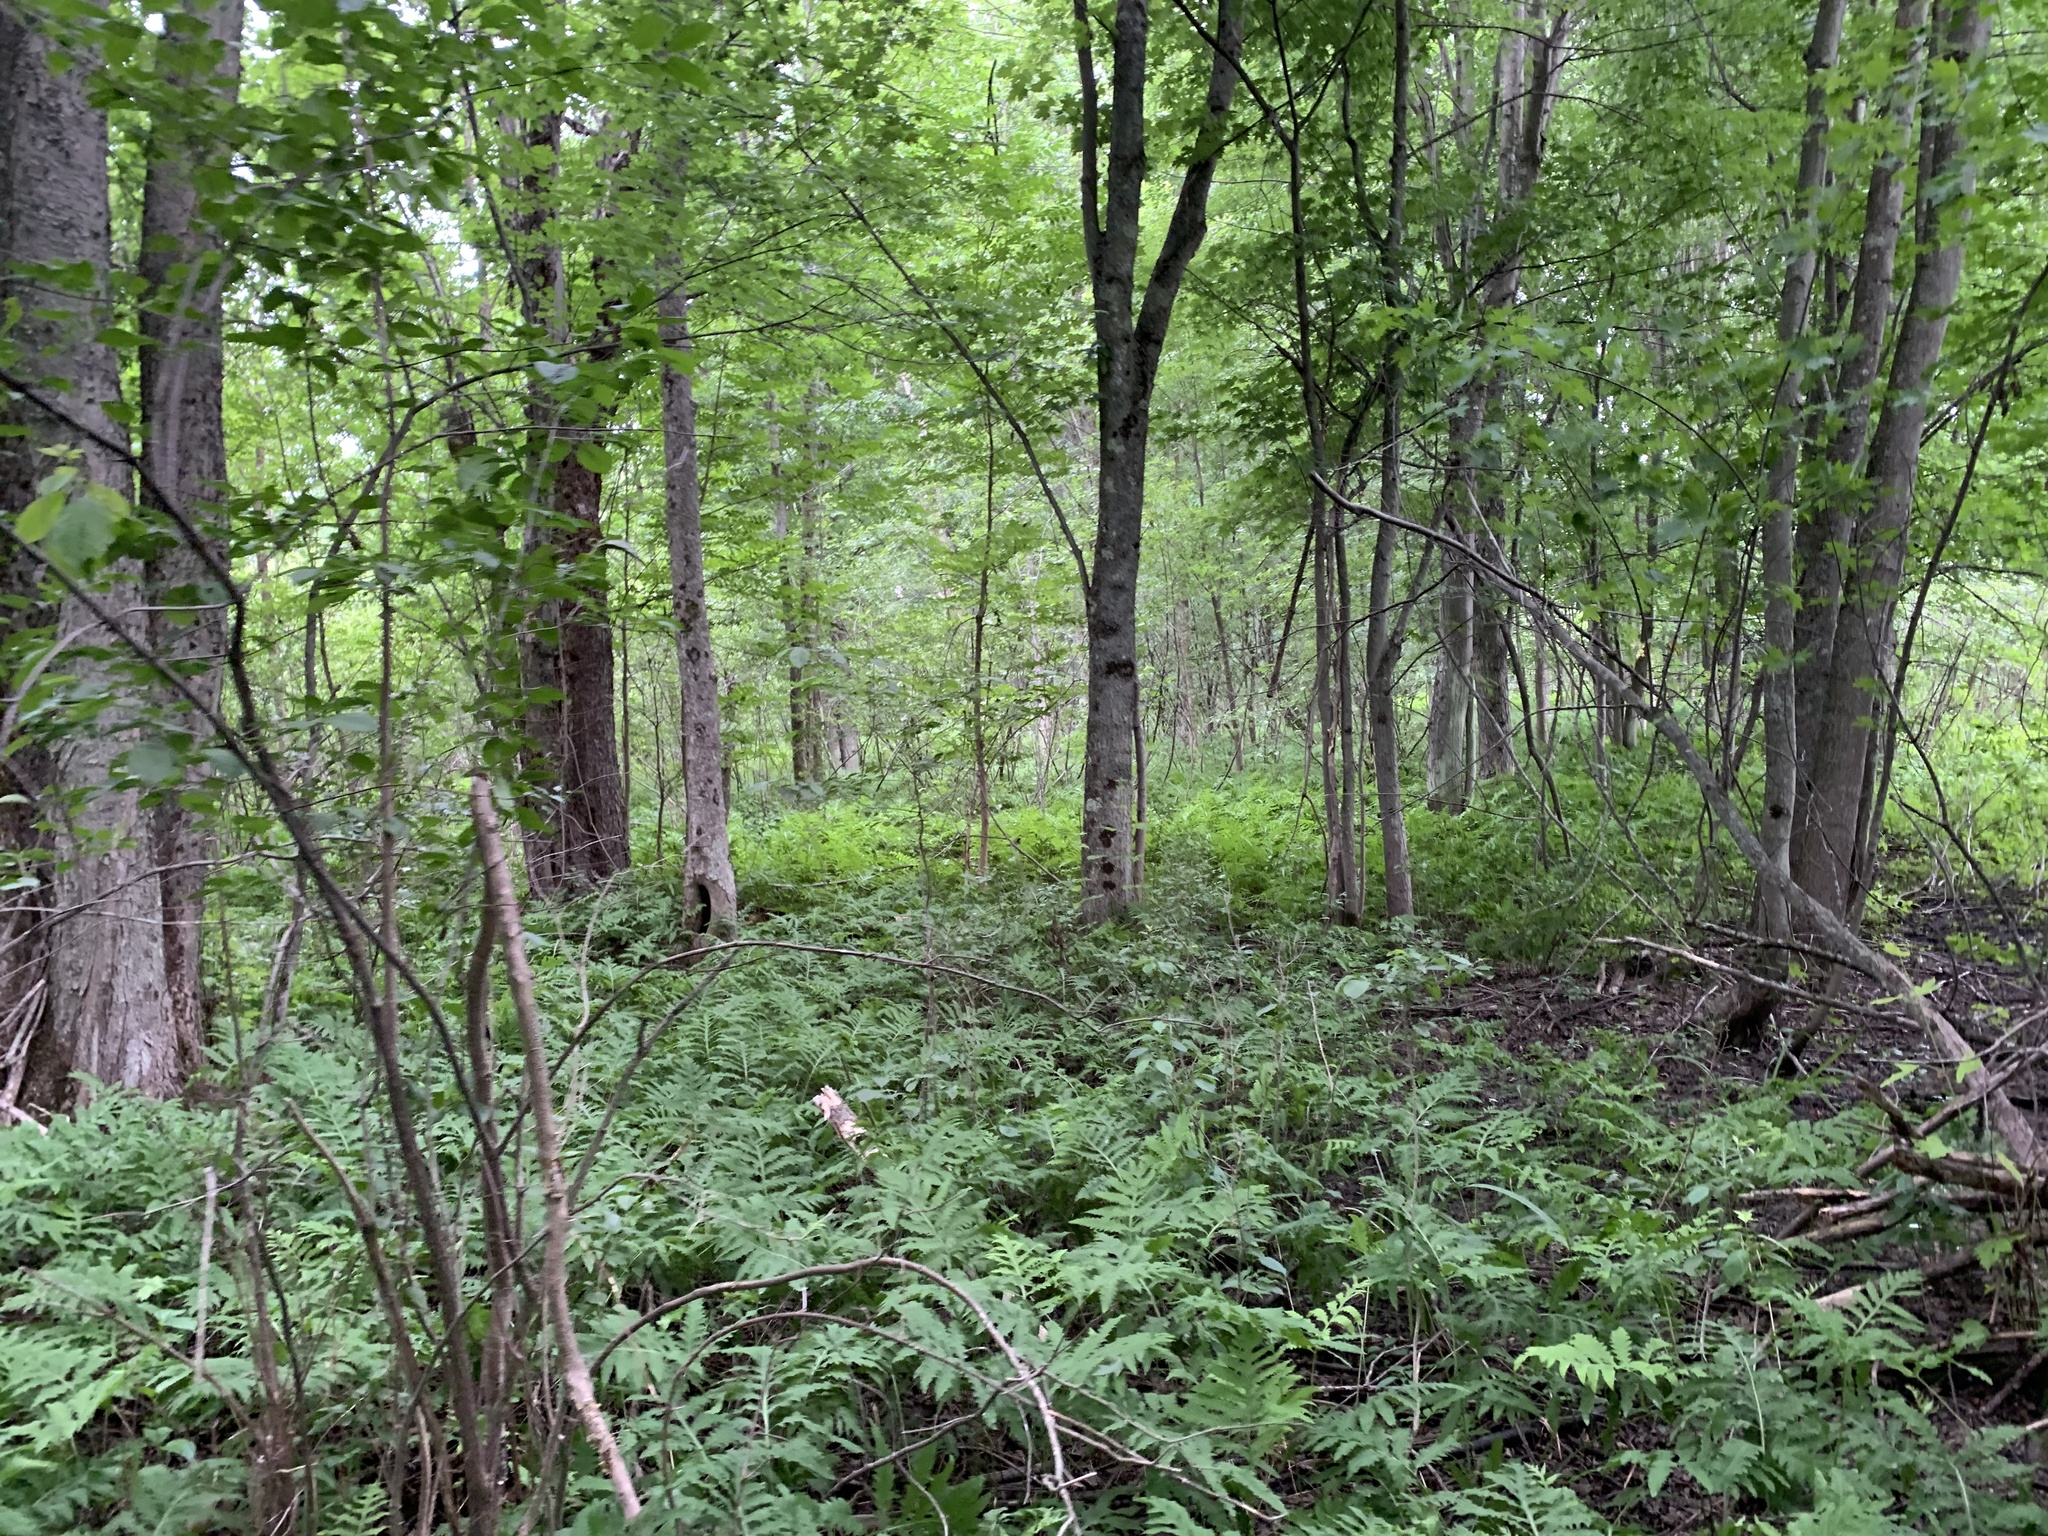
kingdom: Plantae
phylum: Tracheophyta
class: Polypodiopsida
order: Polypodiales
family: Onocleaceae
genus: Onoclea
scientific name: Onoclea sensibilis
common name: Sensitive fern
